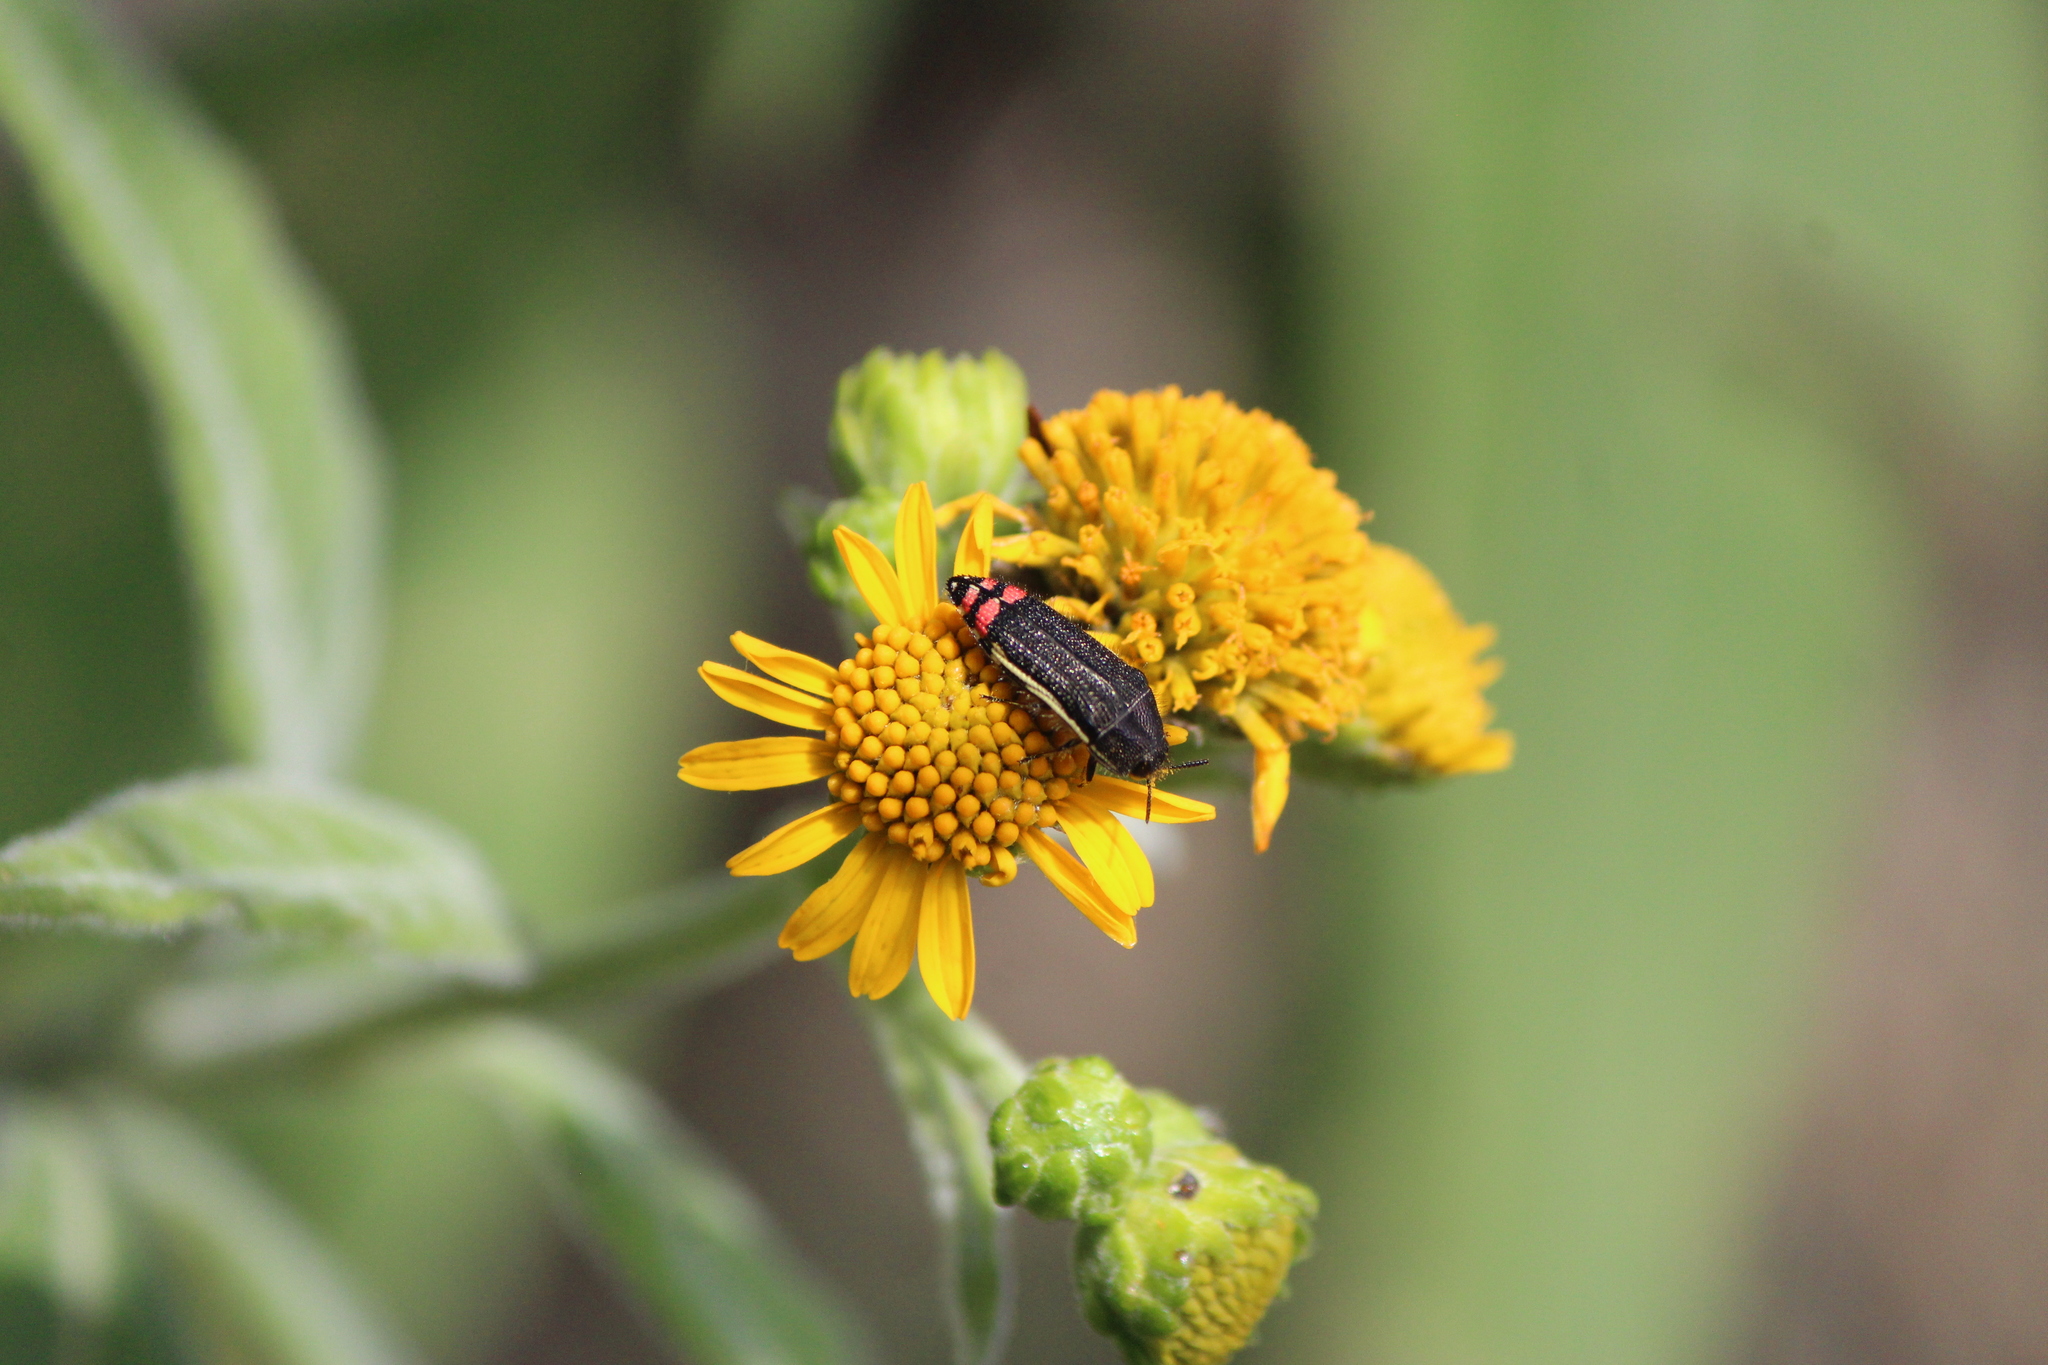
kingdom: Animalia
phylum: Arthropoda
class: Insecta
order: Coleoptera
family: Buprestidae
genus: Acmaeodera
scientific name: Acmaeodera flavomarginata
